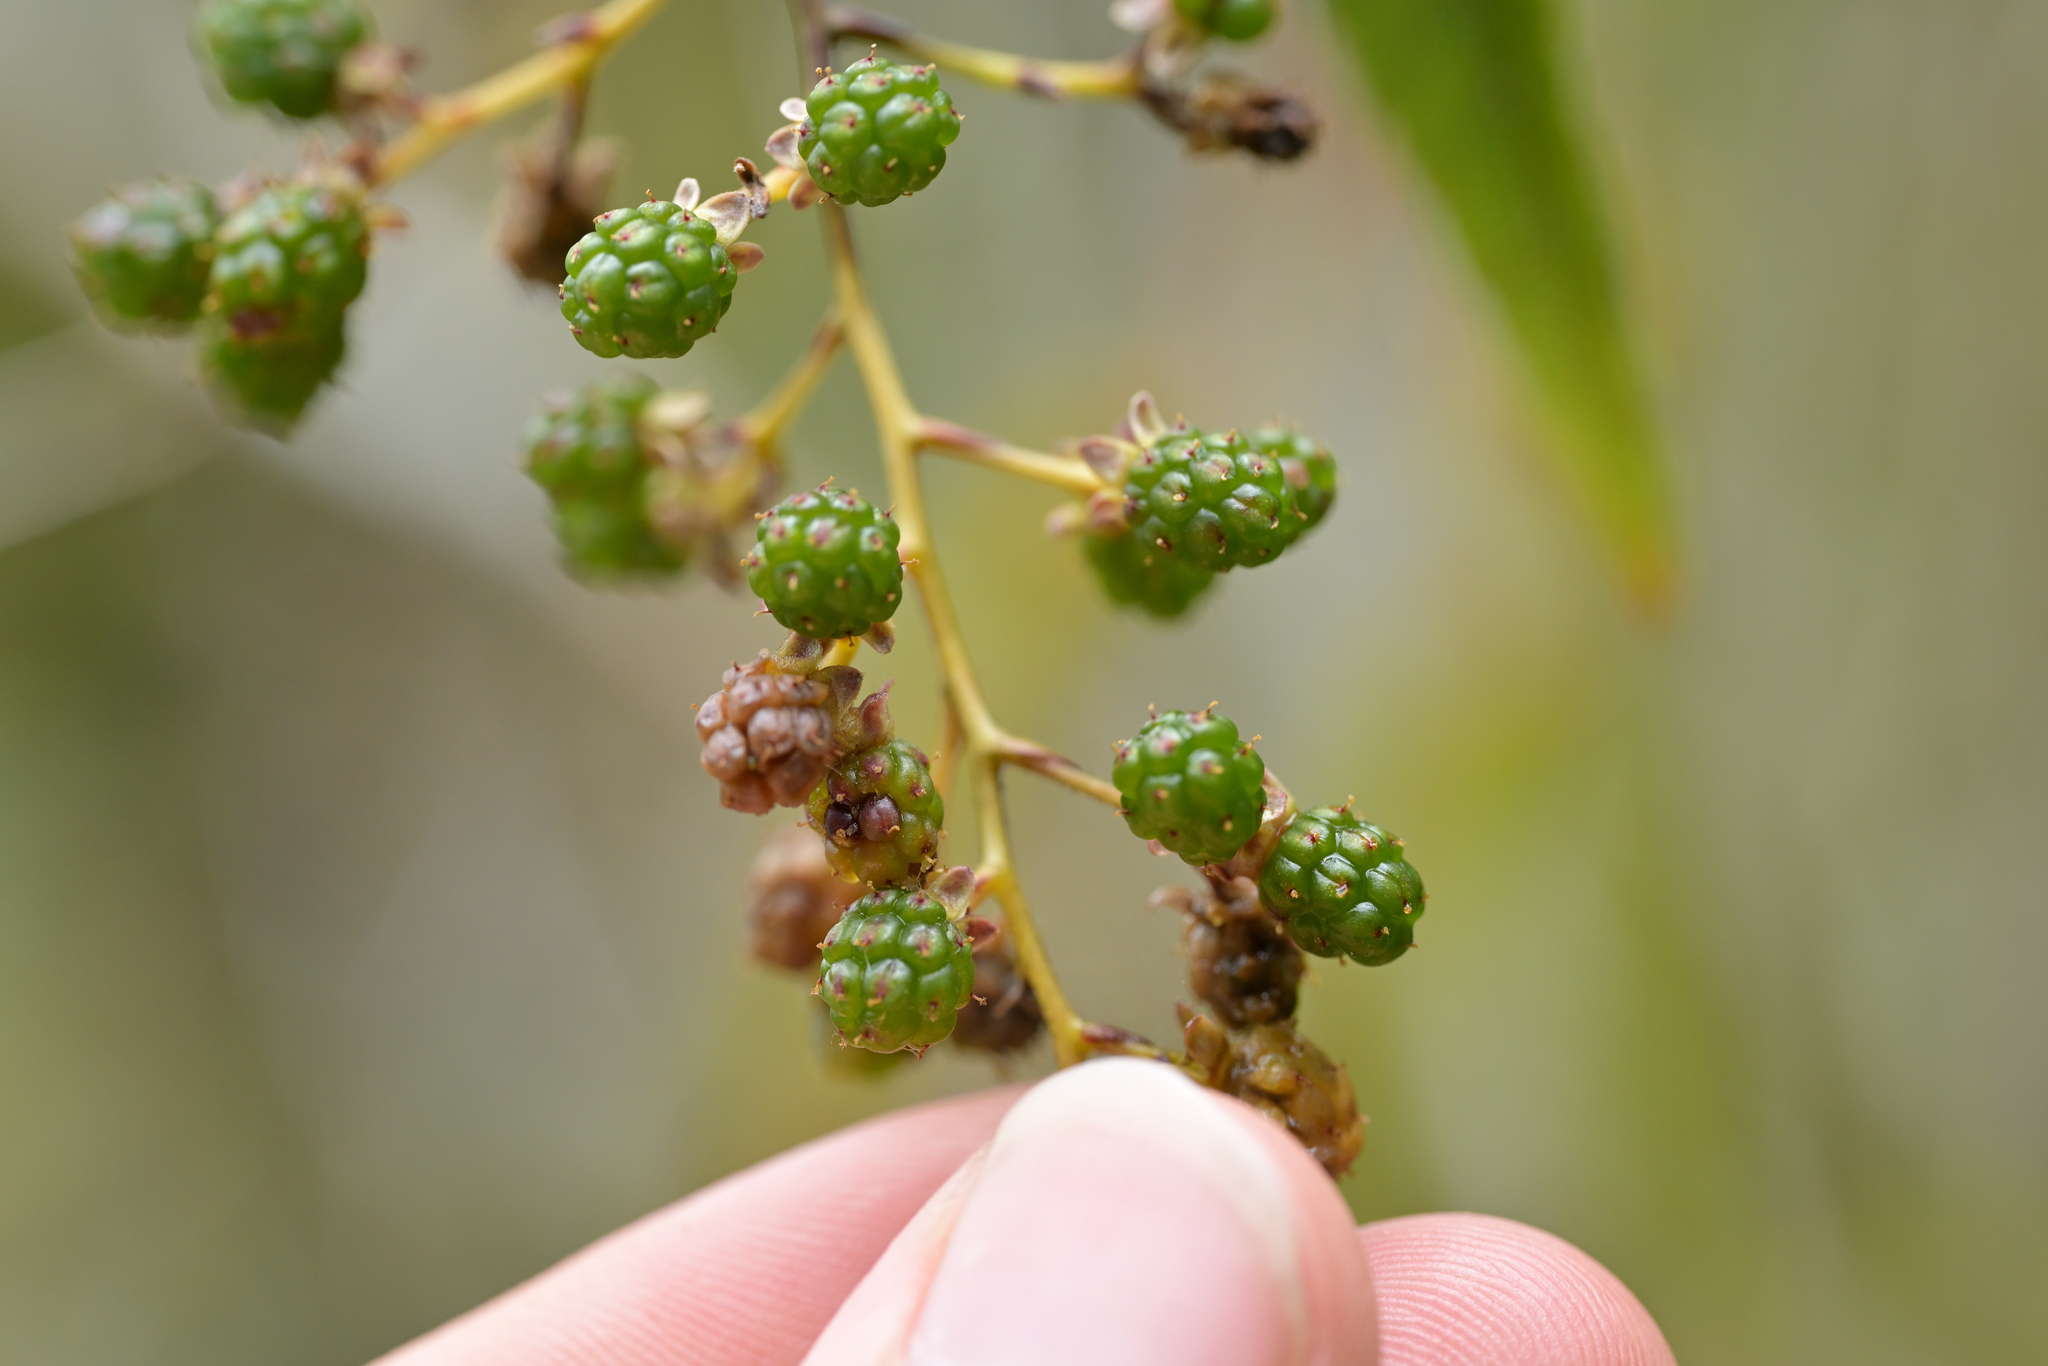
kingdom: Plantae
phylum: Tracheophyta
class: Magnoliopsida
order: Rosales
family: Rosaceae
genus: Rubus
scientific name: Rubus cissoides
